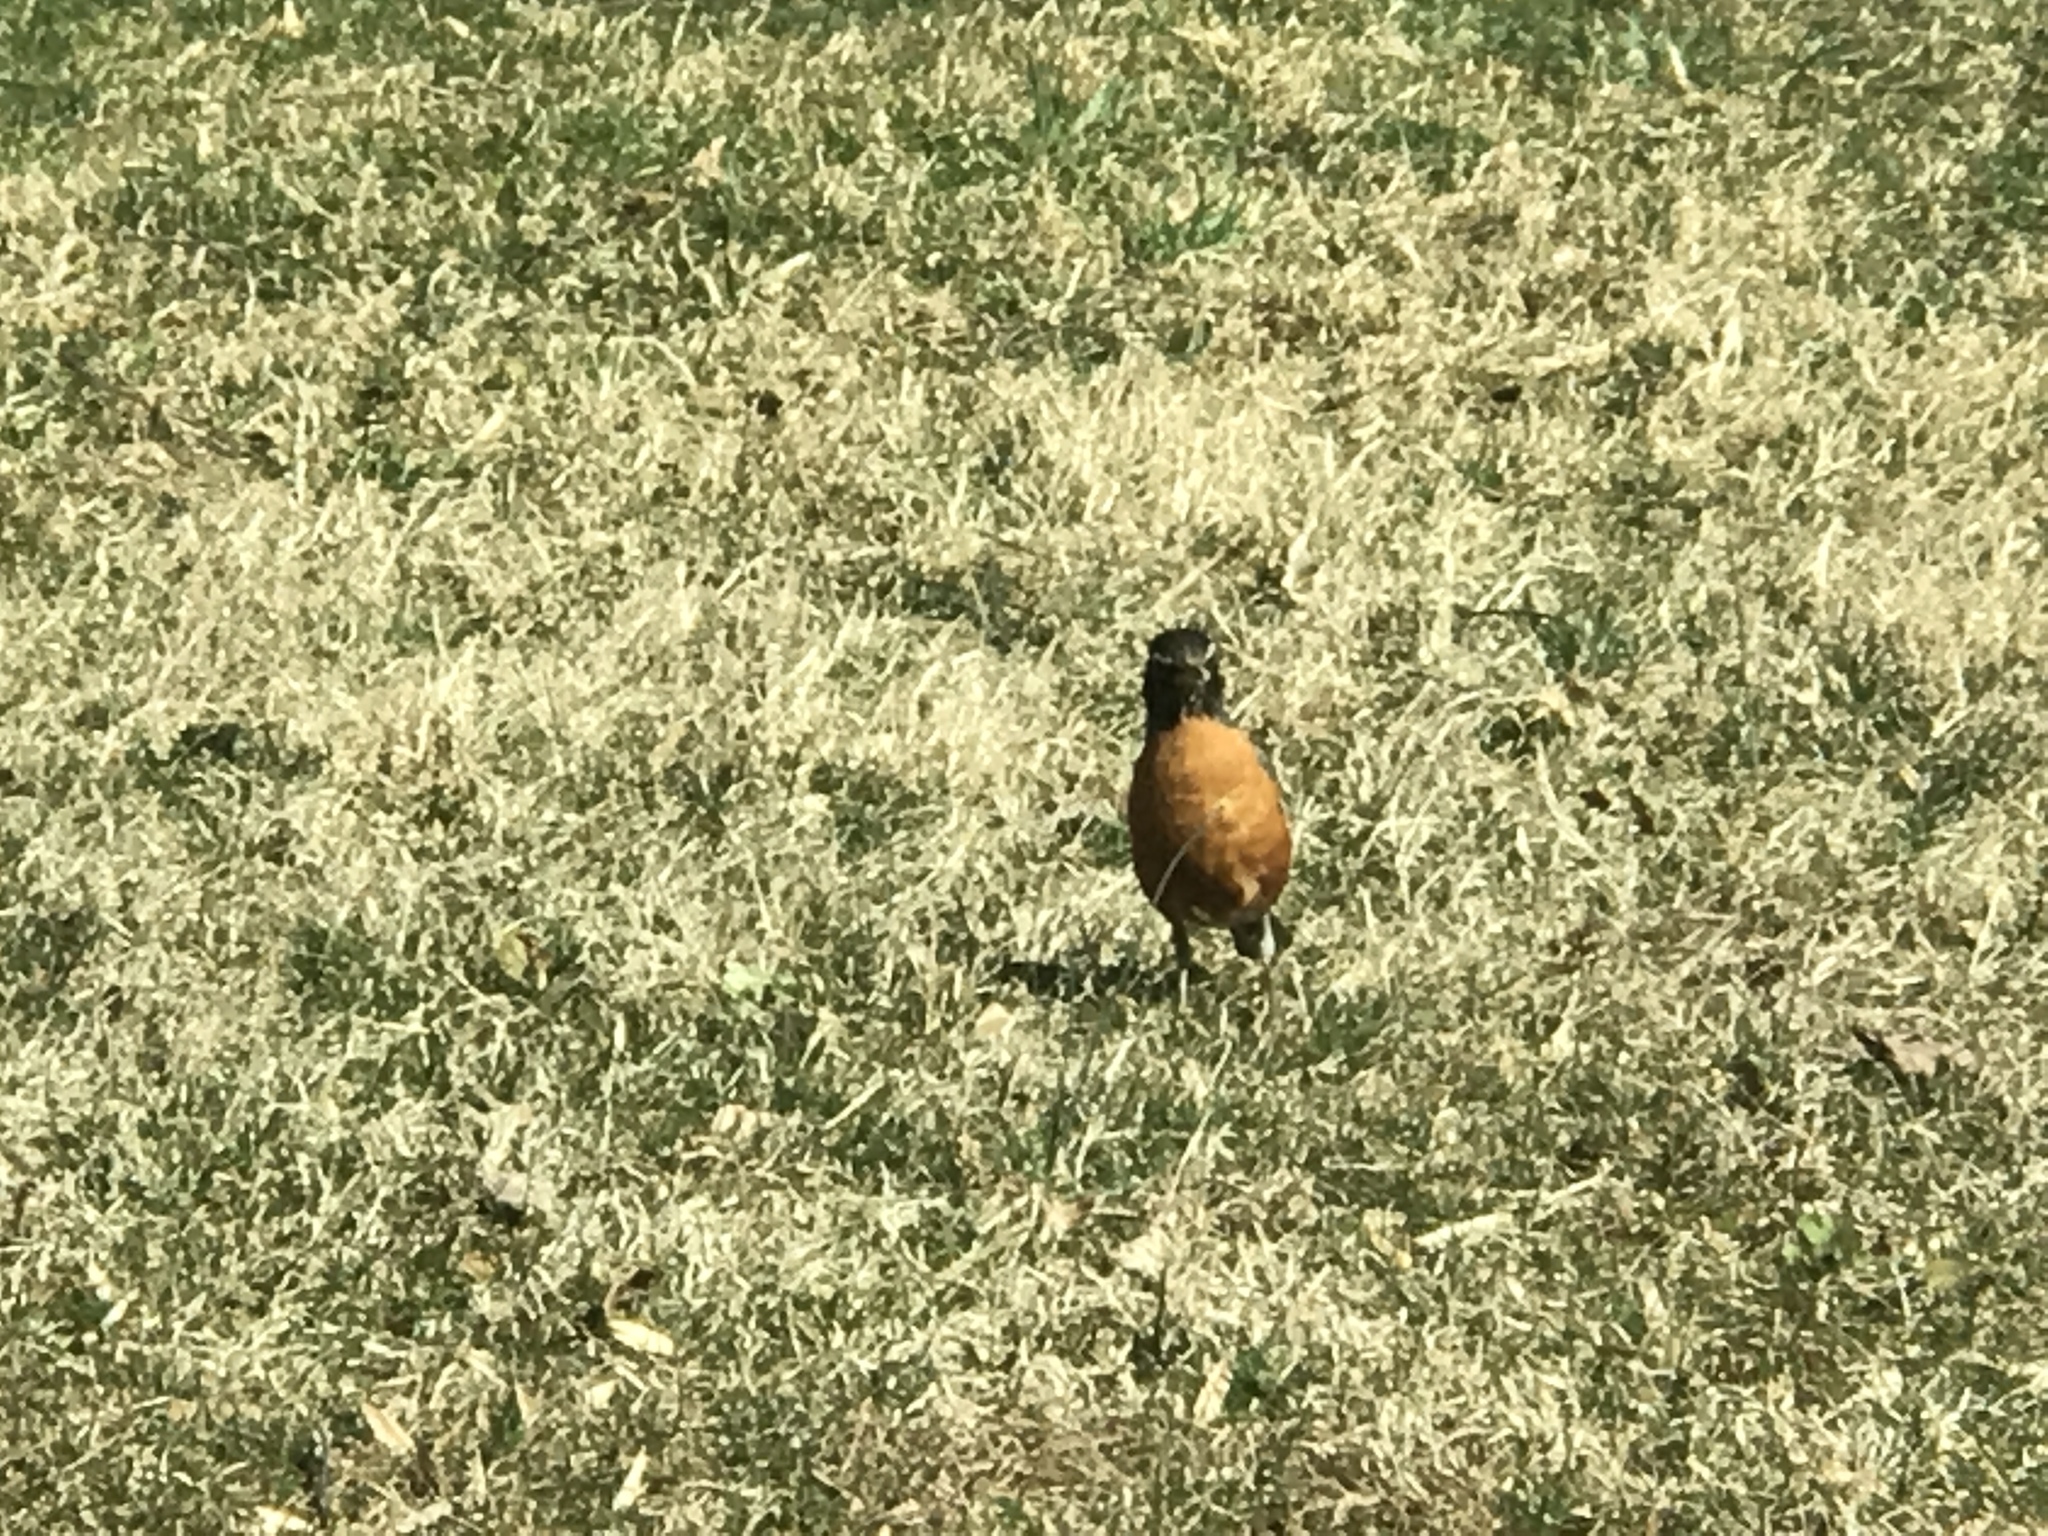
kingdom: Animalia
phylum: Chordata
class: Aves
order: Passeriformes
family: Turdidae
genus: Turdus
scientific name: Turdus migratorius
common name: American robin
